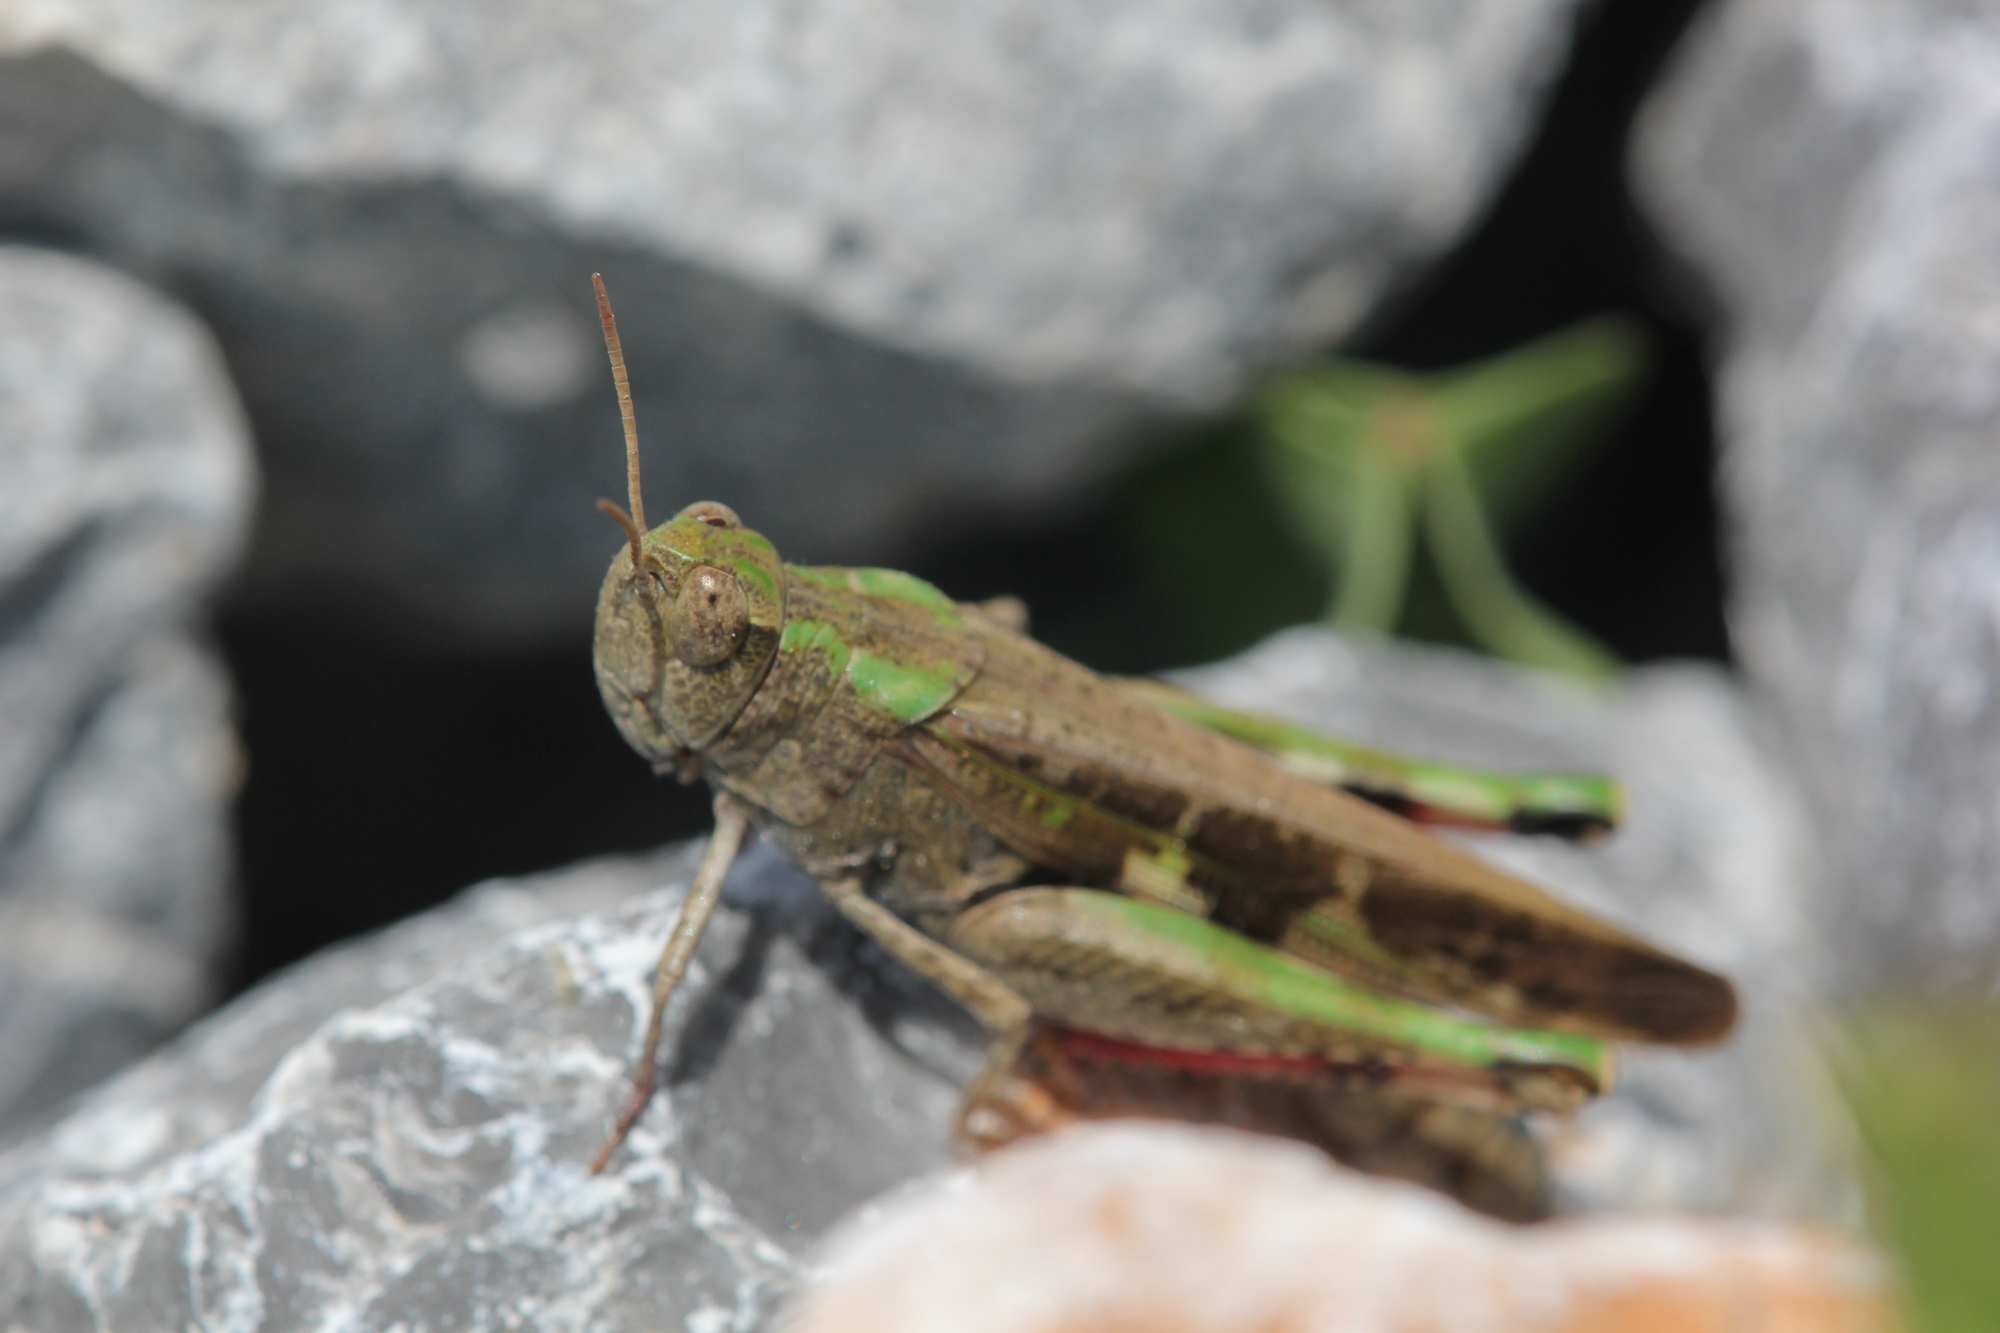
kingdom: Animalia
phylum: Arthropoda
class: Insecta
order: Orthoptera
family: Acrididae
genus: Aiolopus
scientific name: Aiolopus strepens
